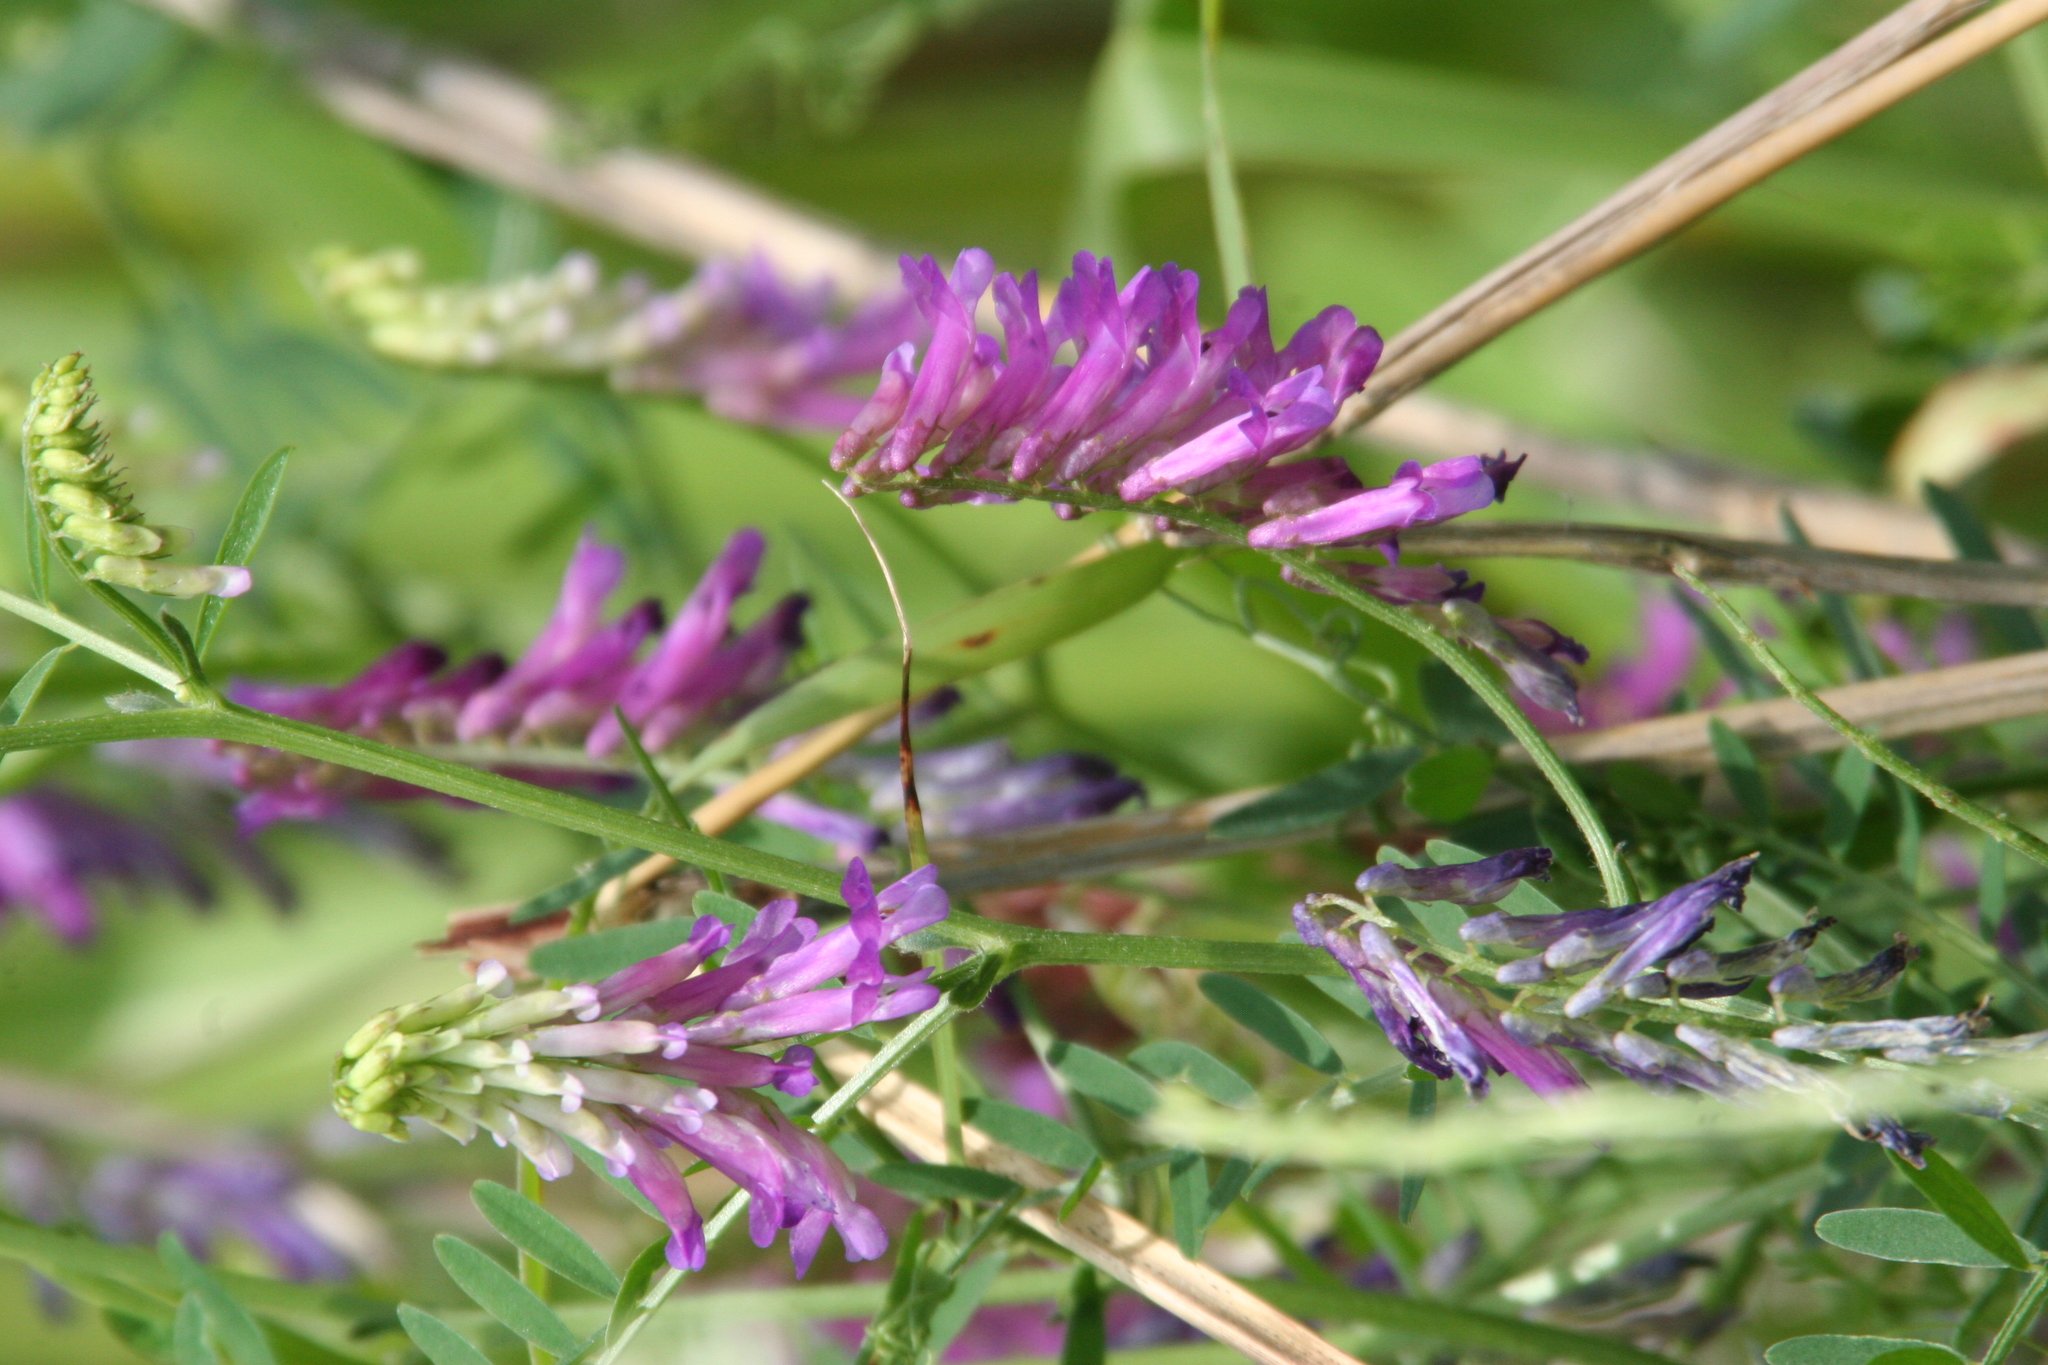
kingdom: Plantae
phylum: Tracheophyta
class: Magnoliopsida
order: Fabales
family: Fabaceae
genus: Vicia
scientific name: Vicia villosa
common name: Fodder vetch
